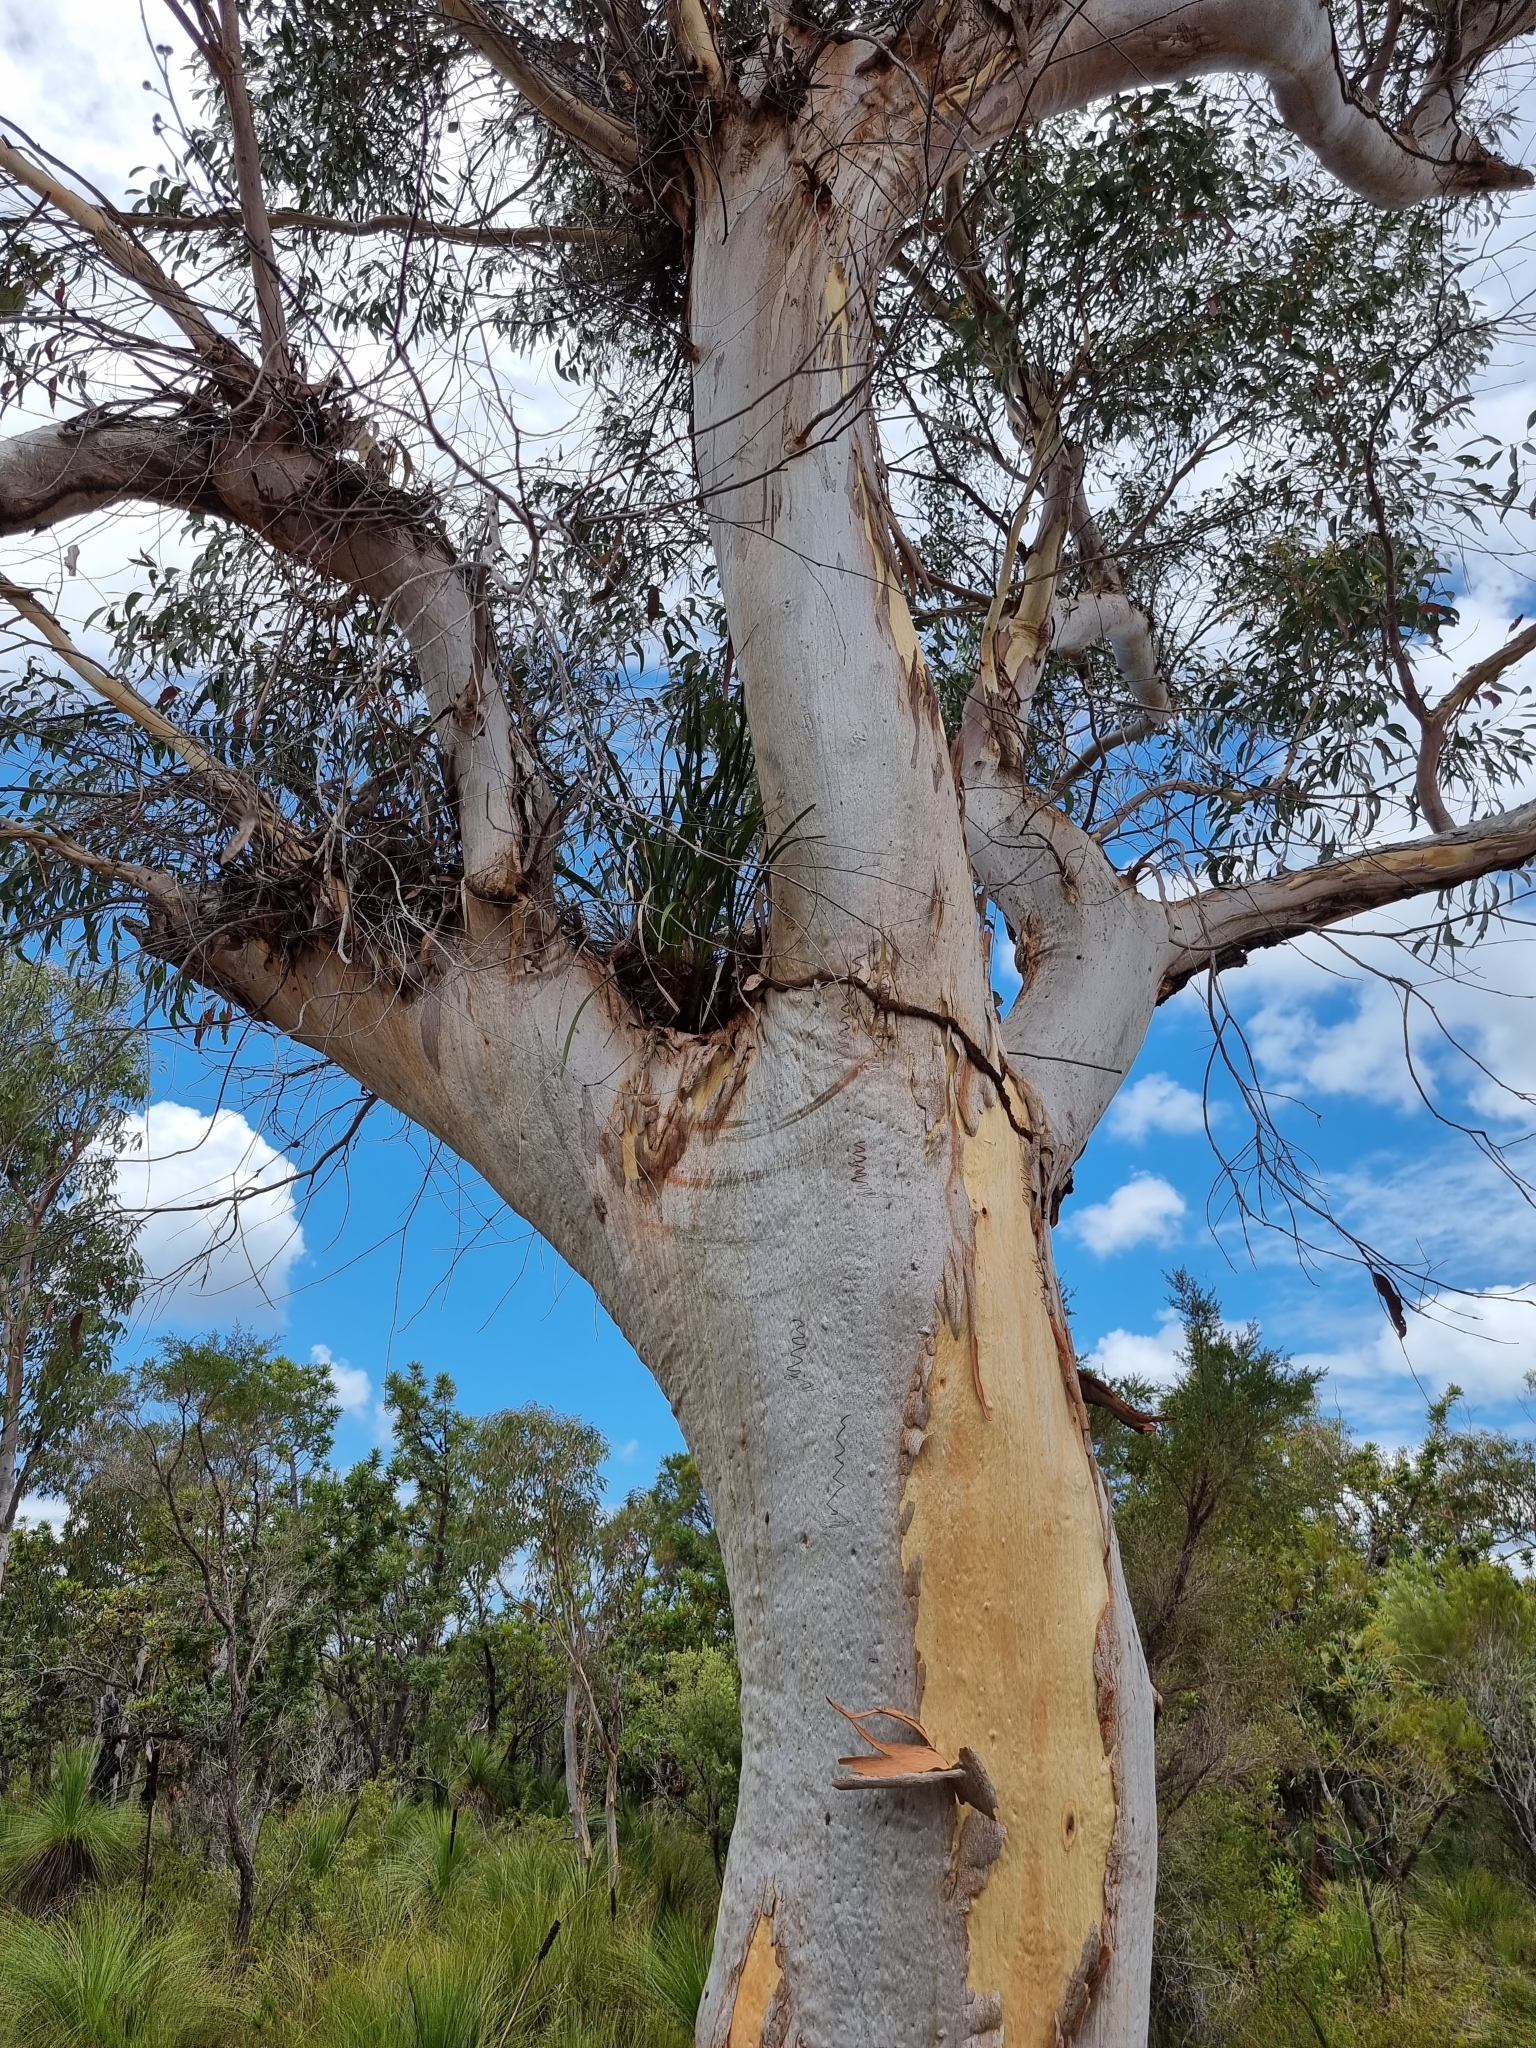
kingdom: Plantae
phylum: Tracheophyta
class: Liliopsida
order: Asparagales
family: Orchidaceae
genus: Cymbidium
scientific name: Cymbidium suave
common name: Snake orchid
